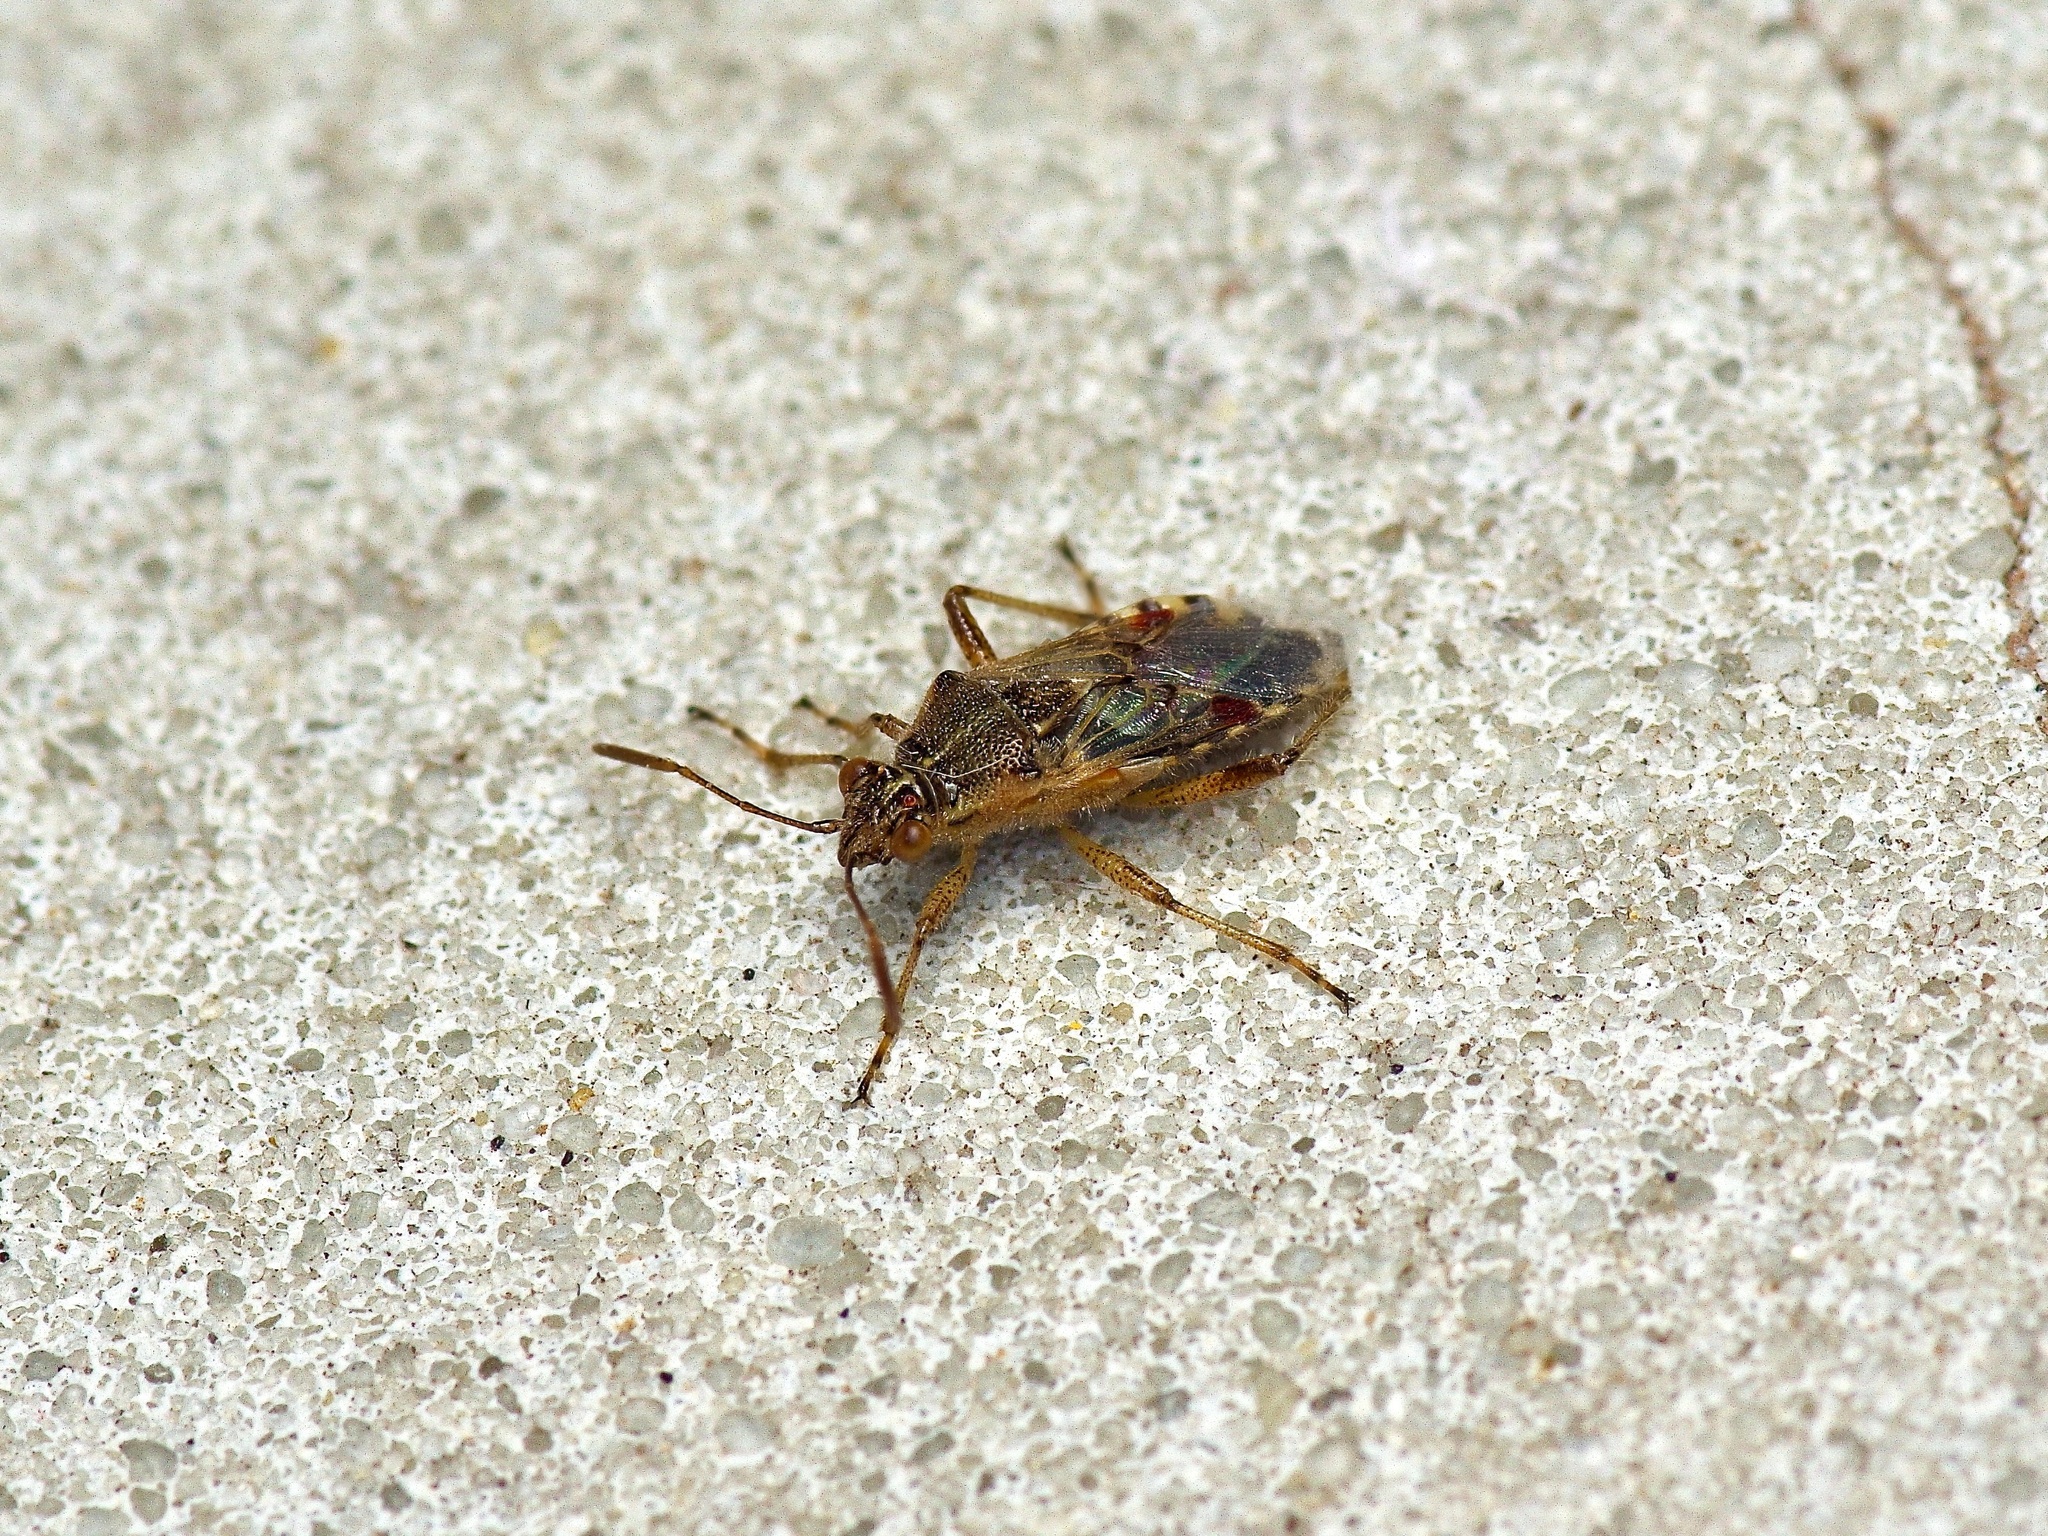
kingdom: Animalia
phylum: Arthropoda
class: Insecta
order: Hemiptera
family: Rhopalidae
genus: Liorhyssus
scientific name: Liorhyssus hyalinus
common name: Scentless plant bug
